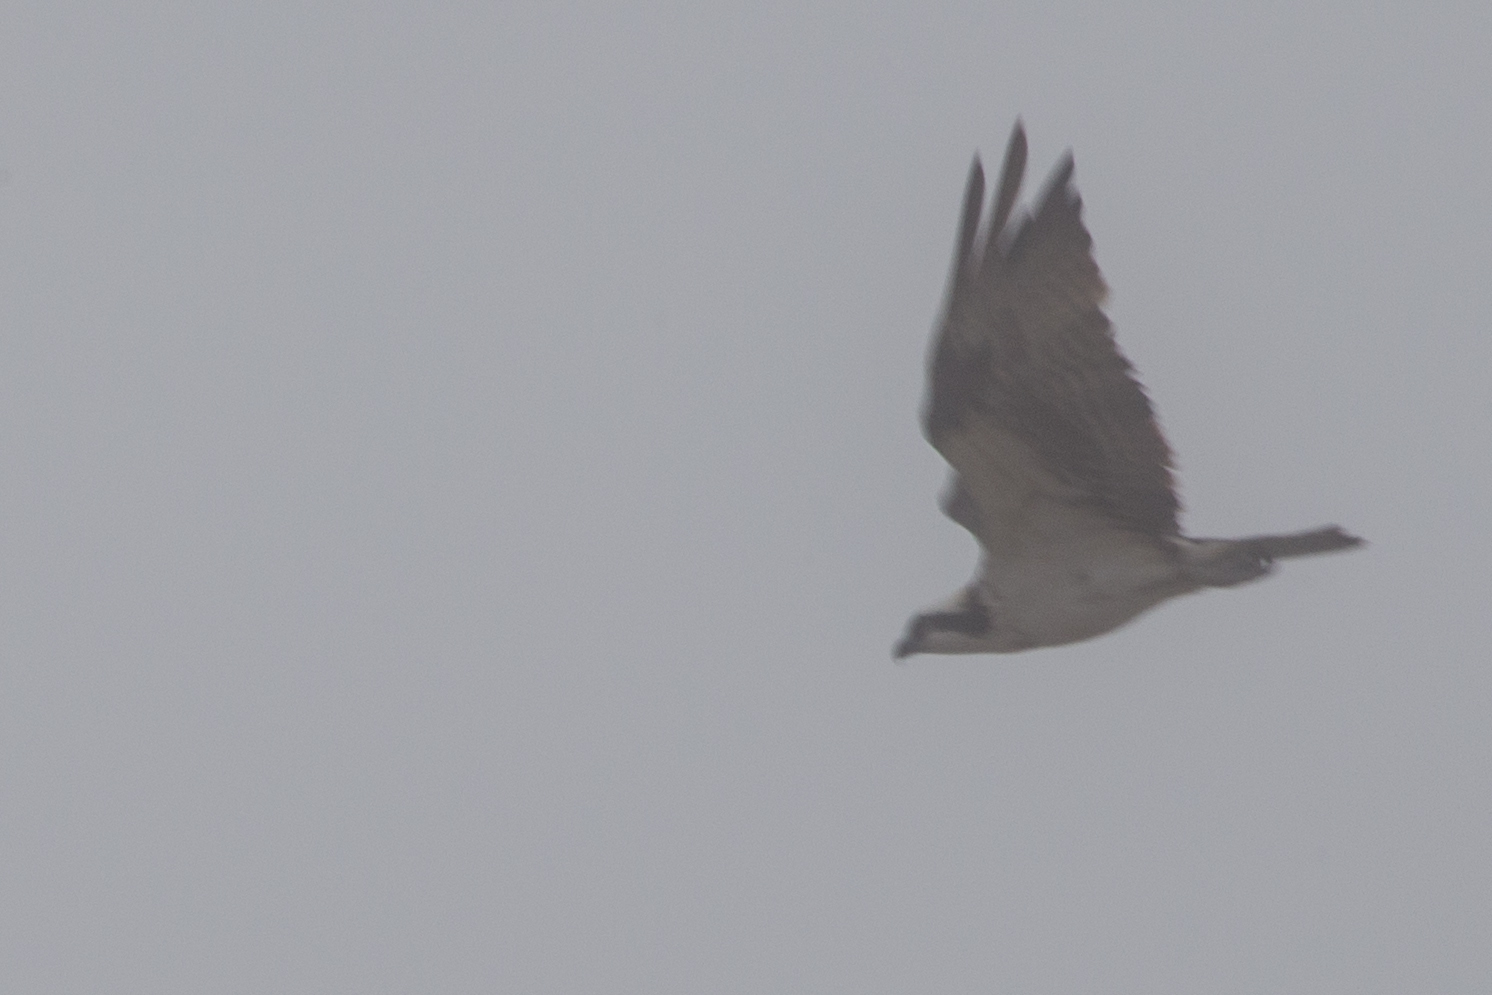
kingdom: Animalia
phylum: Chordata
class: Aves
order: Accipitriformes
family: Pandionidae
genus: Pandion
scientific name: Pandion haliaetus
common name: Osprey
